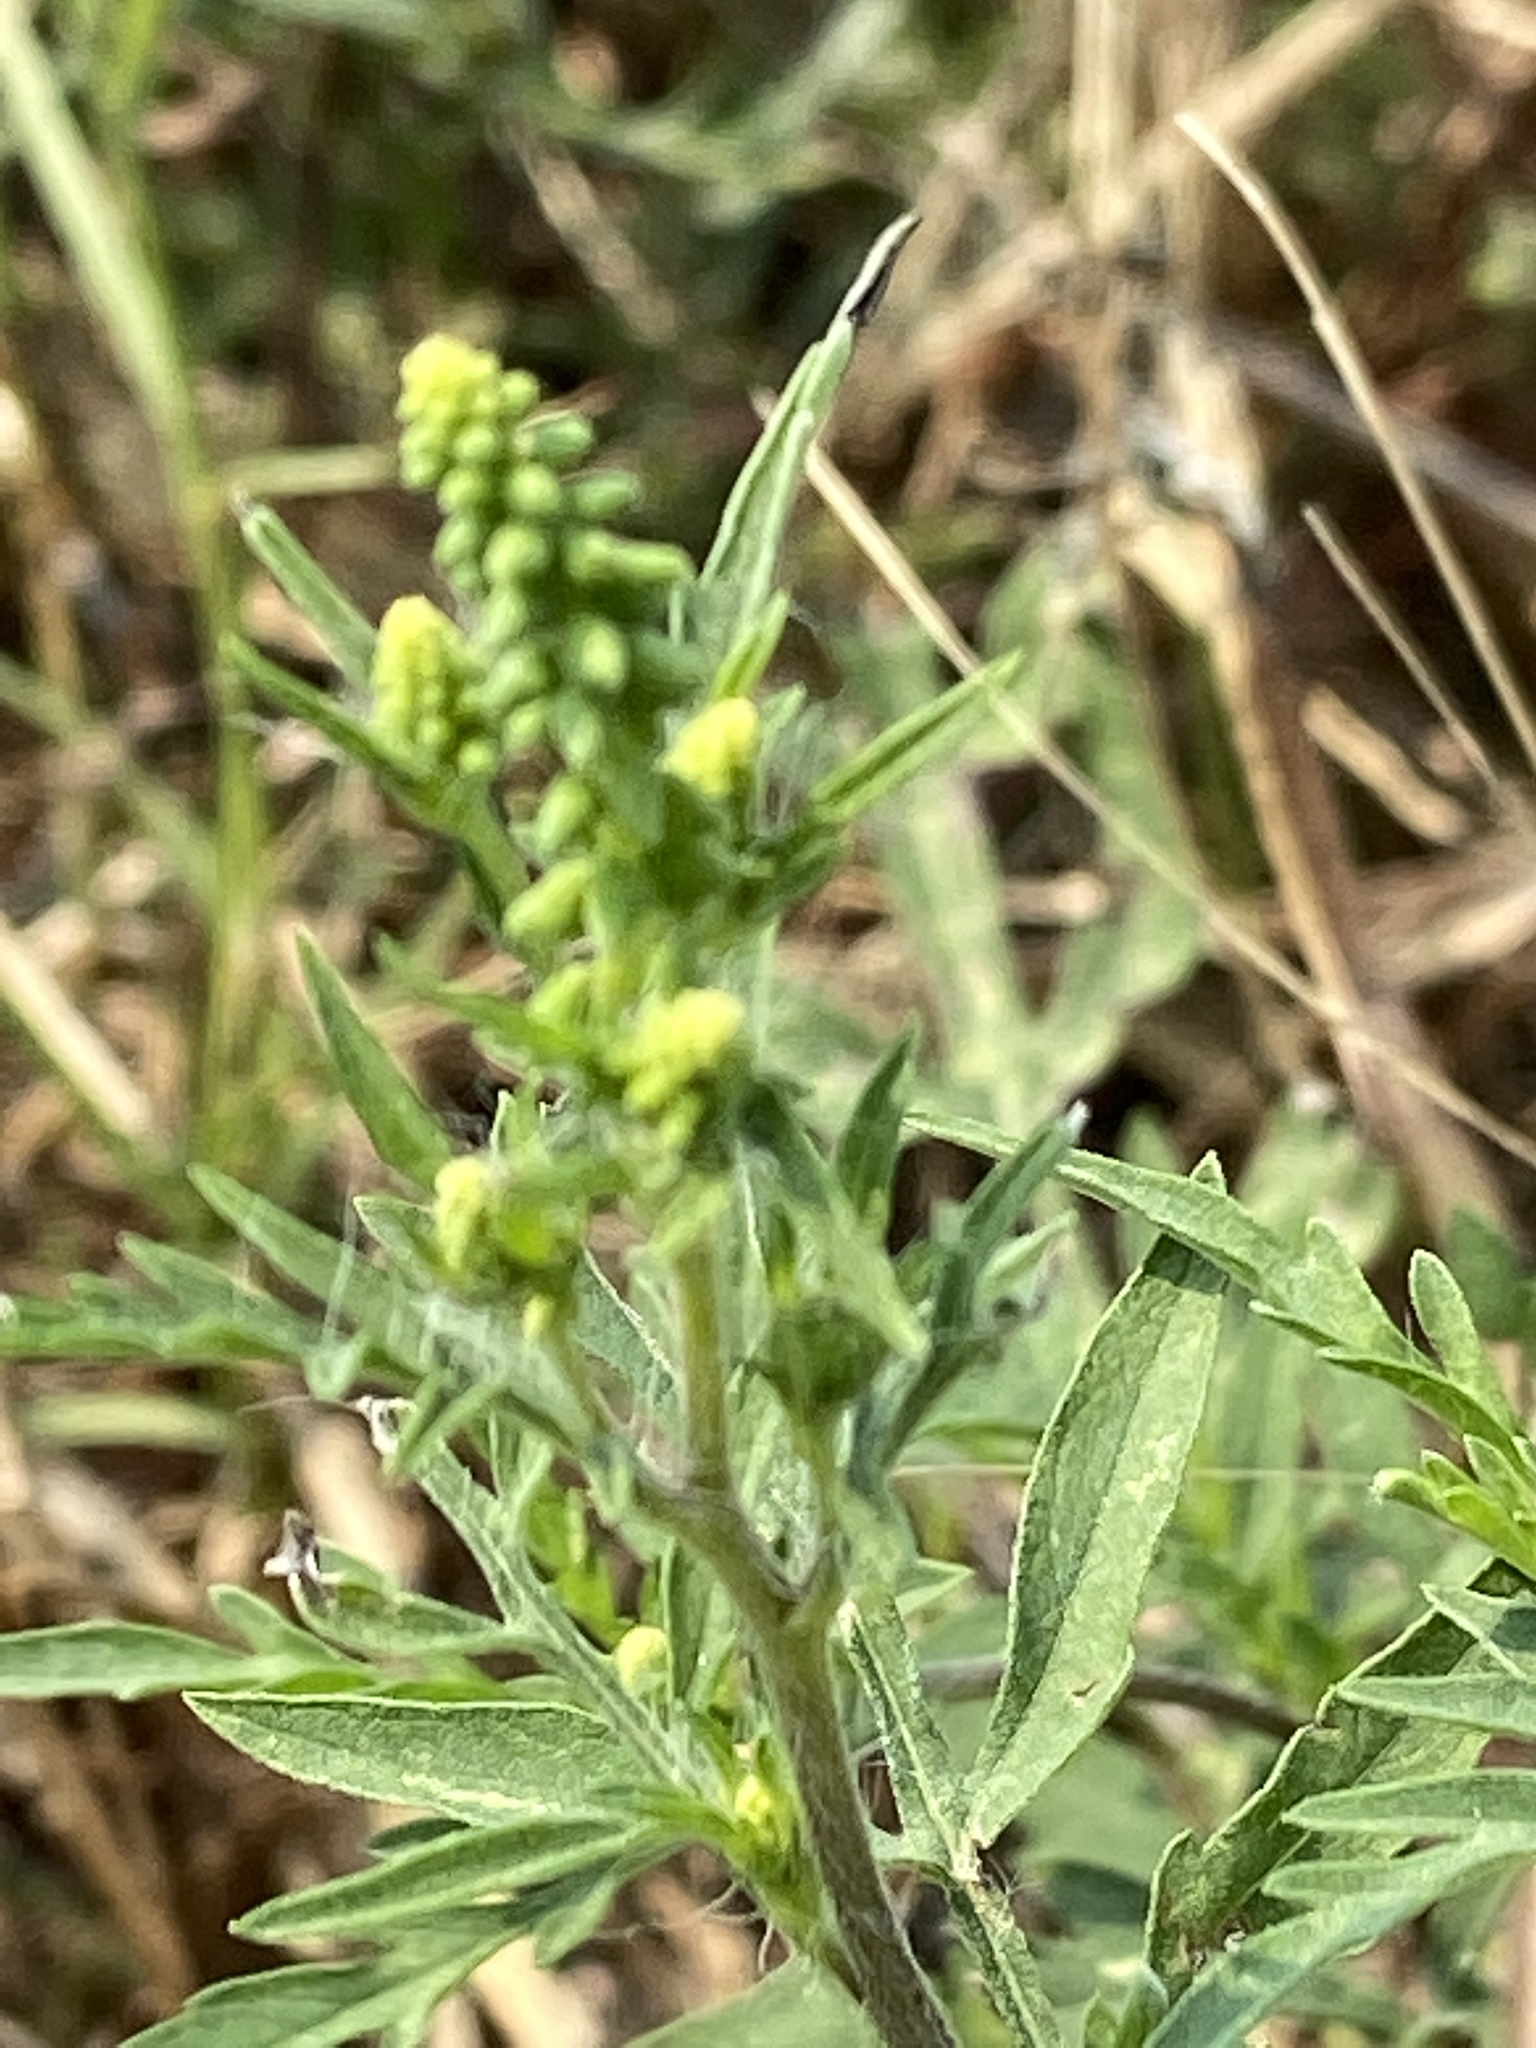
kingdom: Plantae
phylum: Tracheophyta
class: Magnoliopsida
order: Asterales
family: Asteraceae
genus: Ambrosia
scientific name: Ambrosia psilostachya
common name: Perennial ragweed
